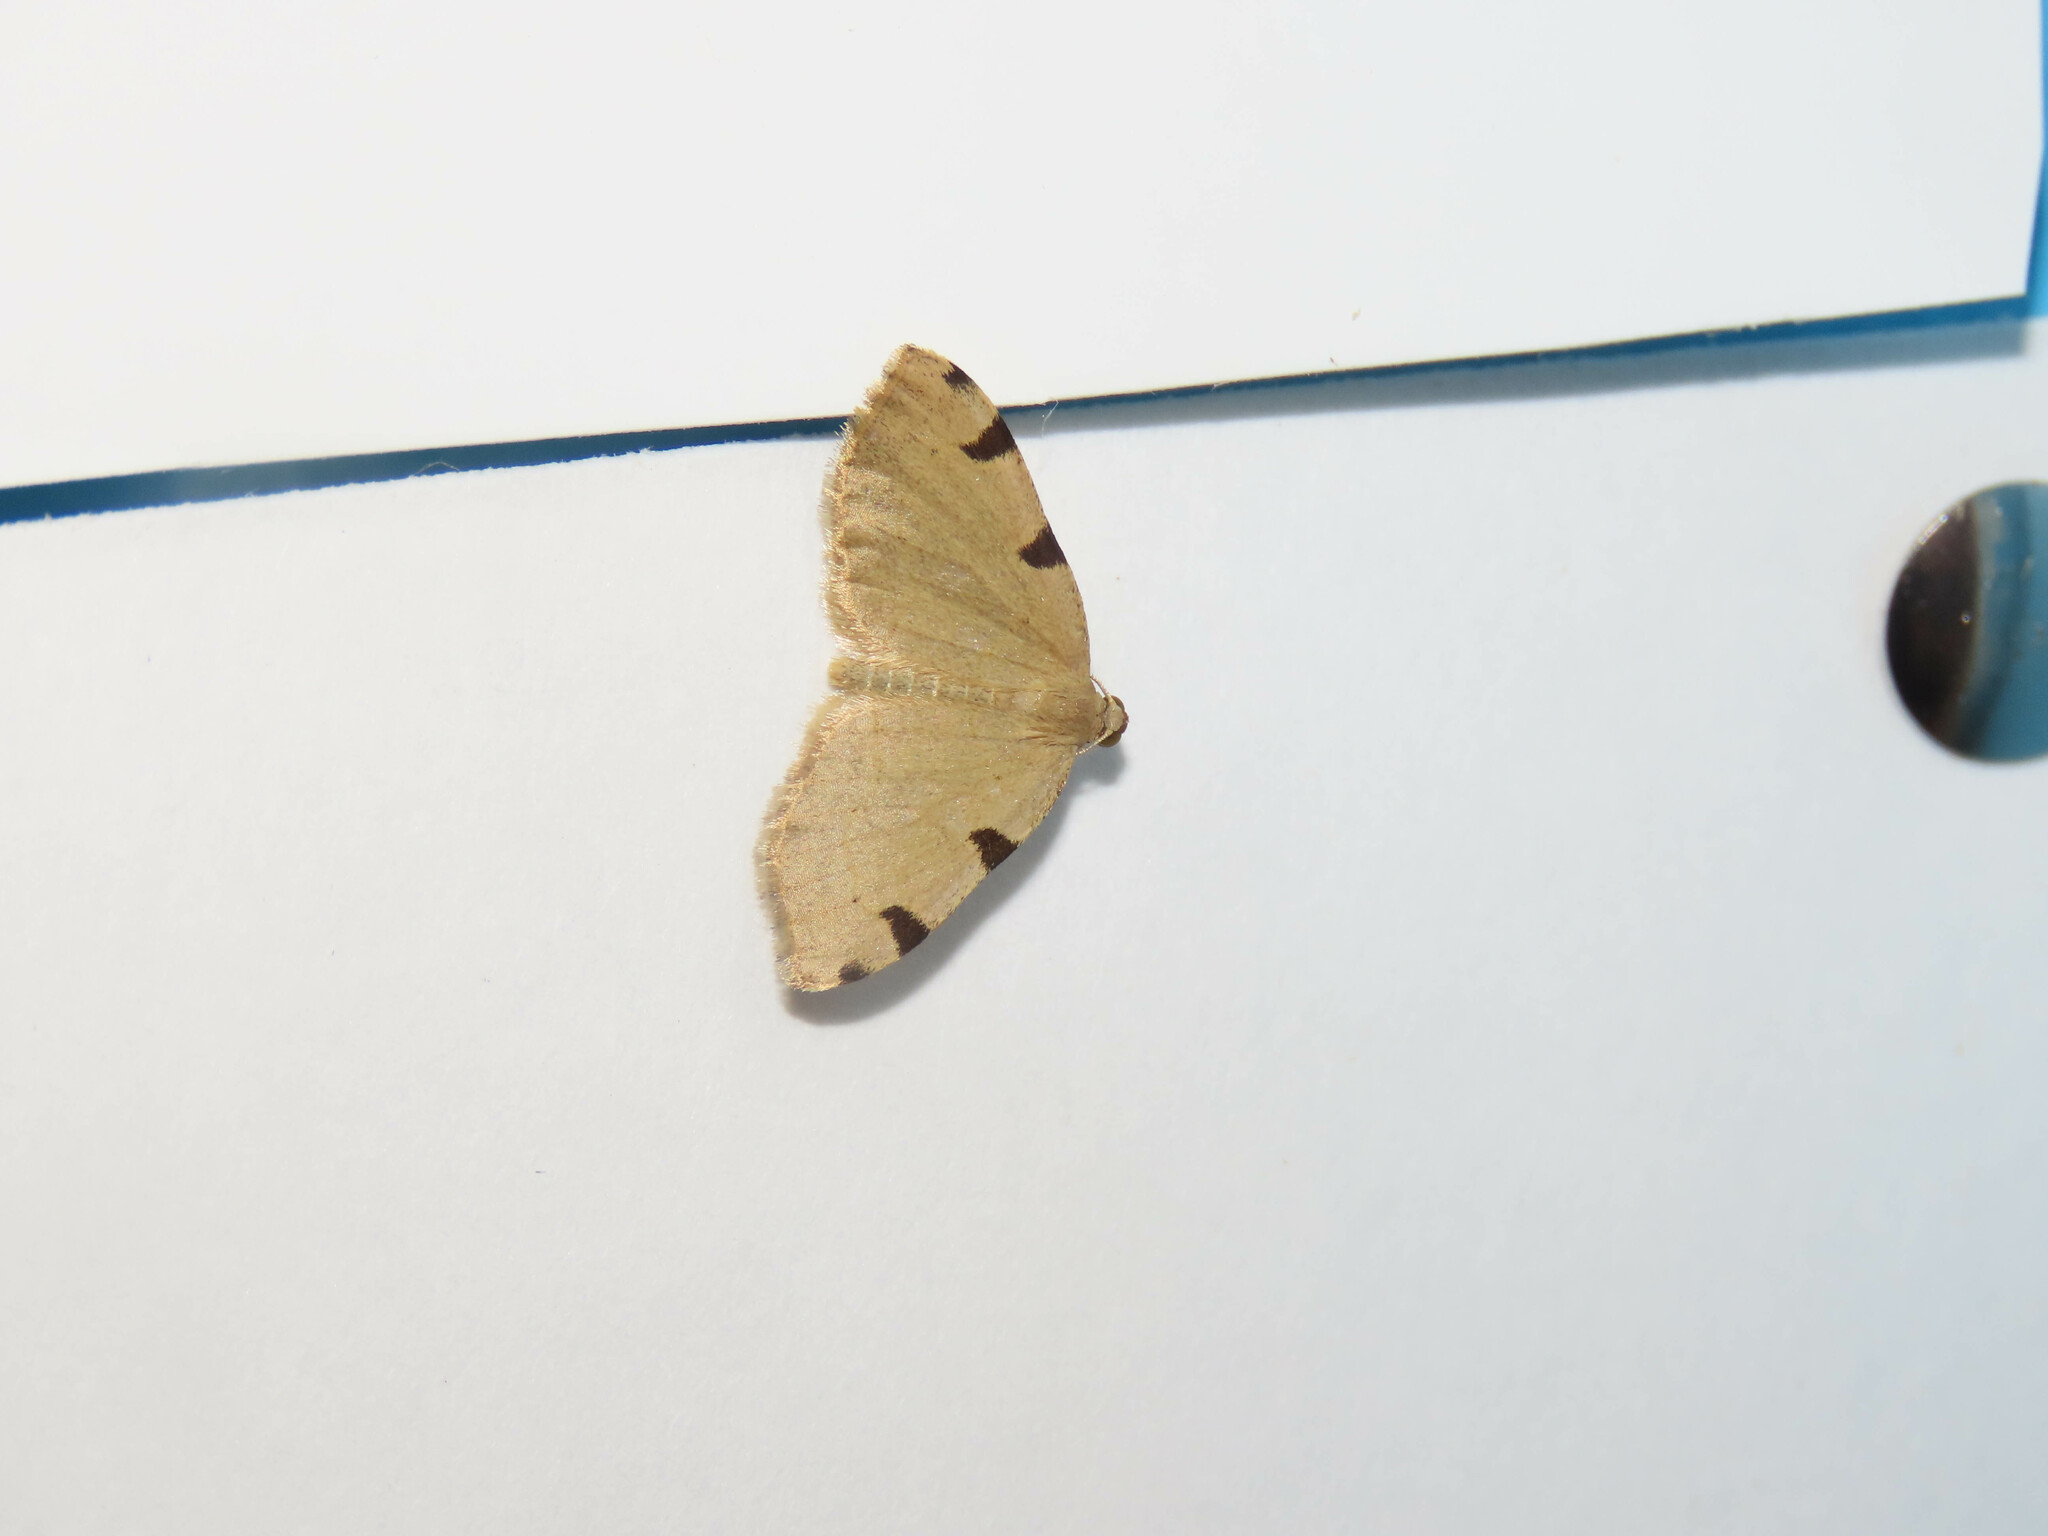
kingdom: Animalia
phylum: Arthropoda
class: Insecta
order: Lepidoptera
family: Geometridae
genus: Heterophleps
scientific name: Heterophleps triguttaria
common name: Three-spotted fillip
